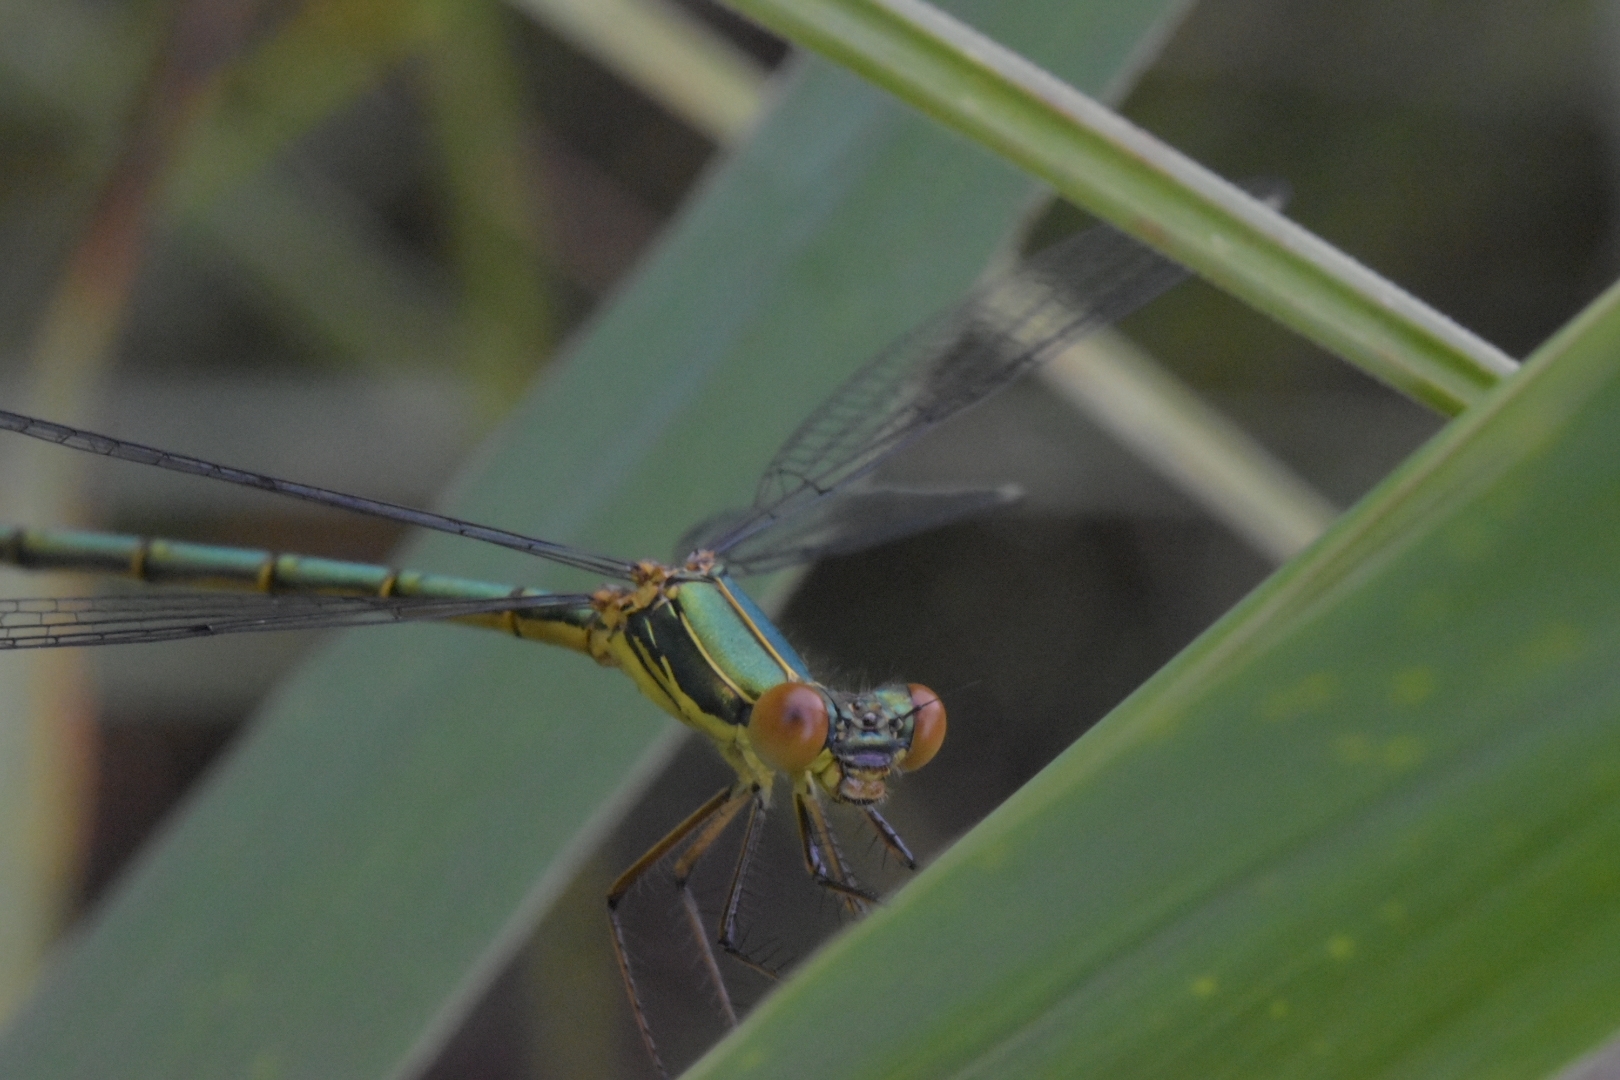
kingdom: Animalia
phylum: Arthropoda
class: Insecta
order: Odonata
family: Lestidae
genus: Chalcolestes
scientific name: Chalcolestes viridis
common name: Green emerald damselfly
